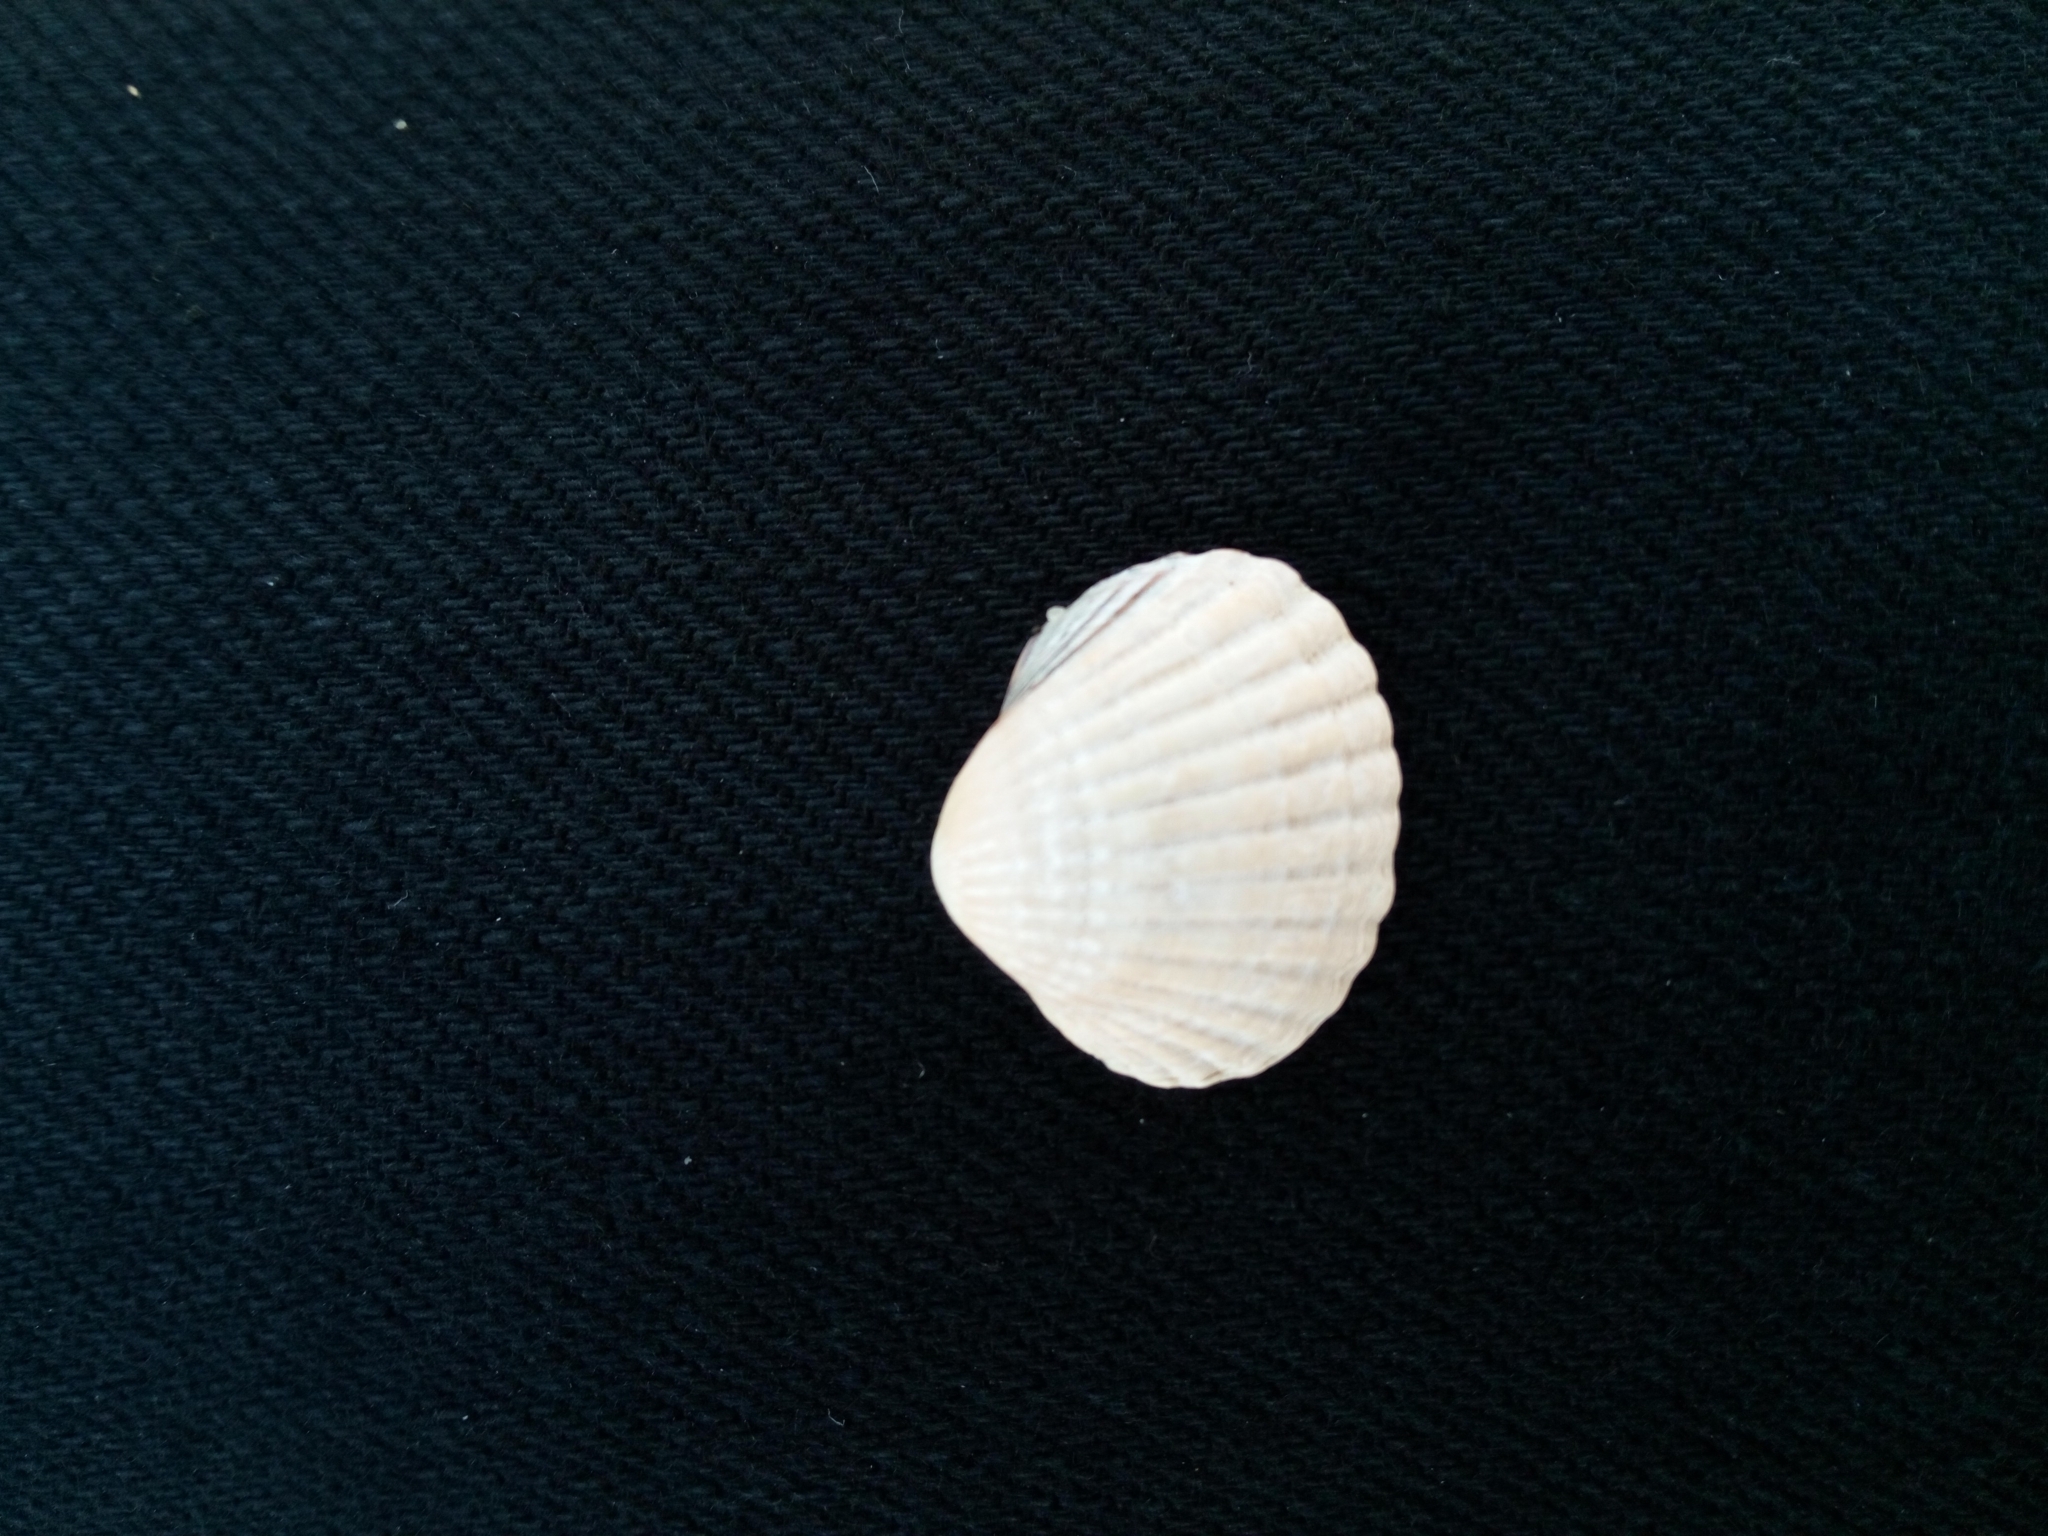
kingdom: Animalia
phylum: Mollusca
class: Bivalvia
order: Cardiida
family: Cardiidae
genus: Cerastoderma
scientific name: Cerastoderma glaucum
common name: Lagoon cockle
